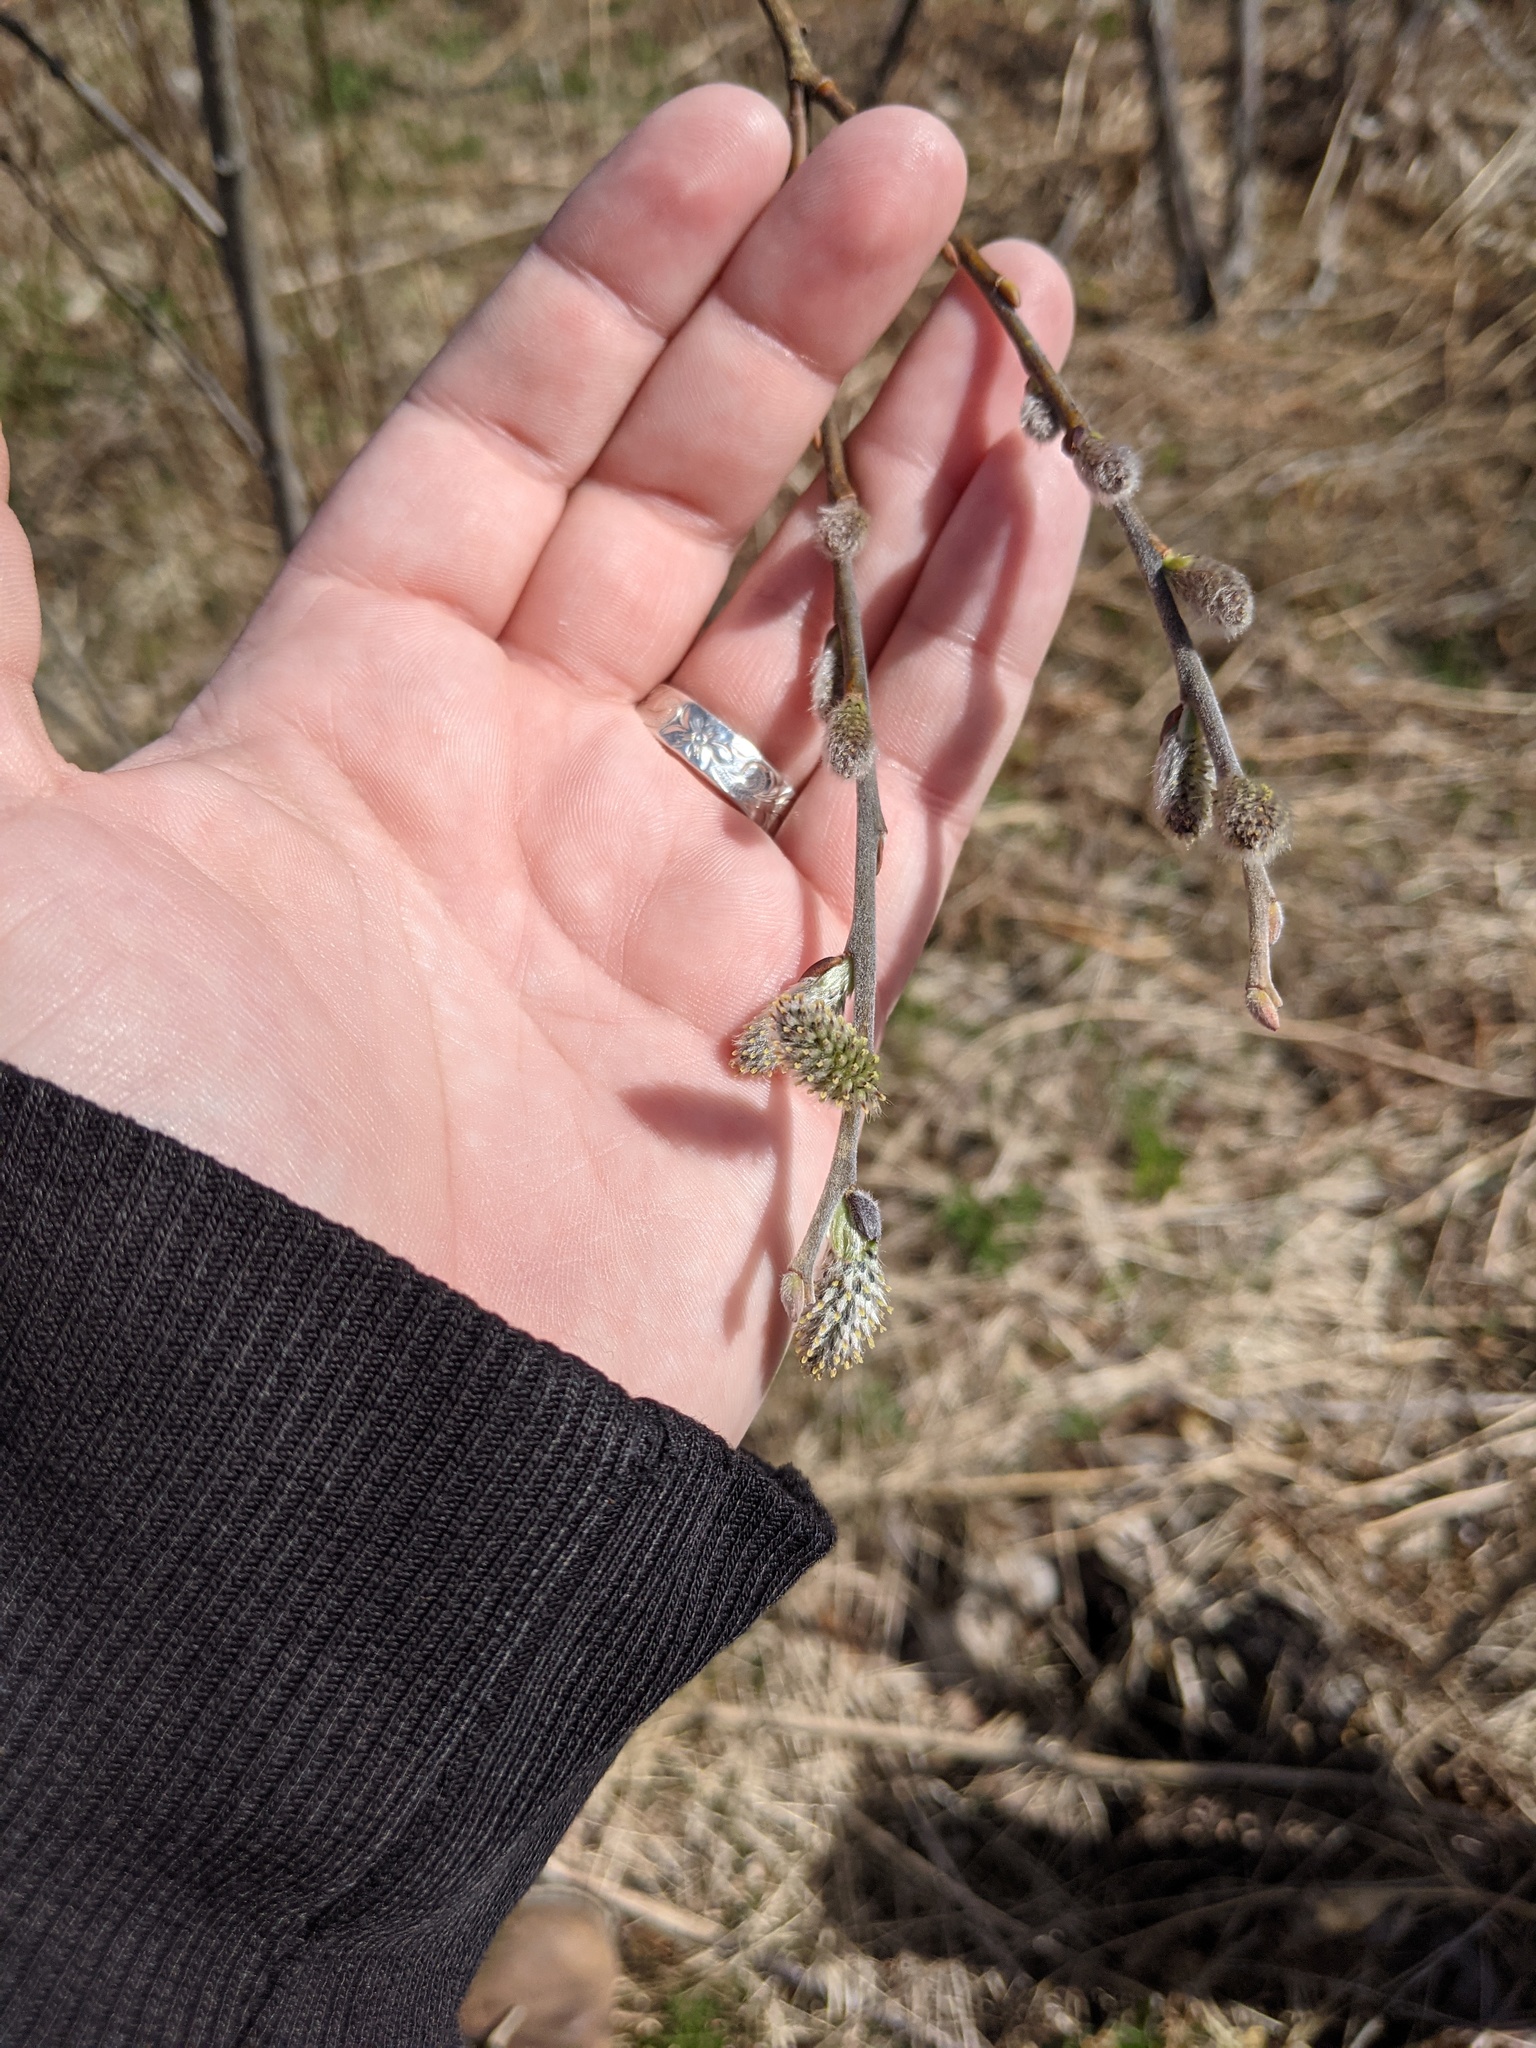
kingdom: Plantae
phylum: Tracheophyta
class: Magnoliopsida
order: Malpighiales
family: Salicaceae
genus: Salix
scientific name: Salix discolor
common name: Glaucous willow
